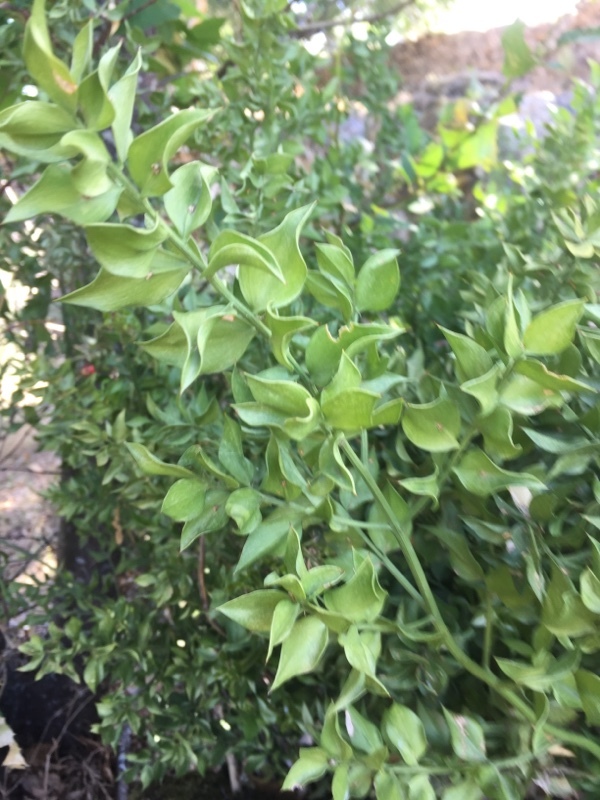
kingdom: Plantae
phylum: Tracheophyta
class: Liliopsida
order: Asparagales
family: Asparagaceae
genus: Ruscus
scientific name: Ruscus aculeatus
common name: Butcher's-broom
